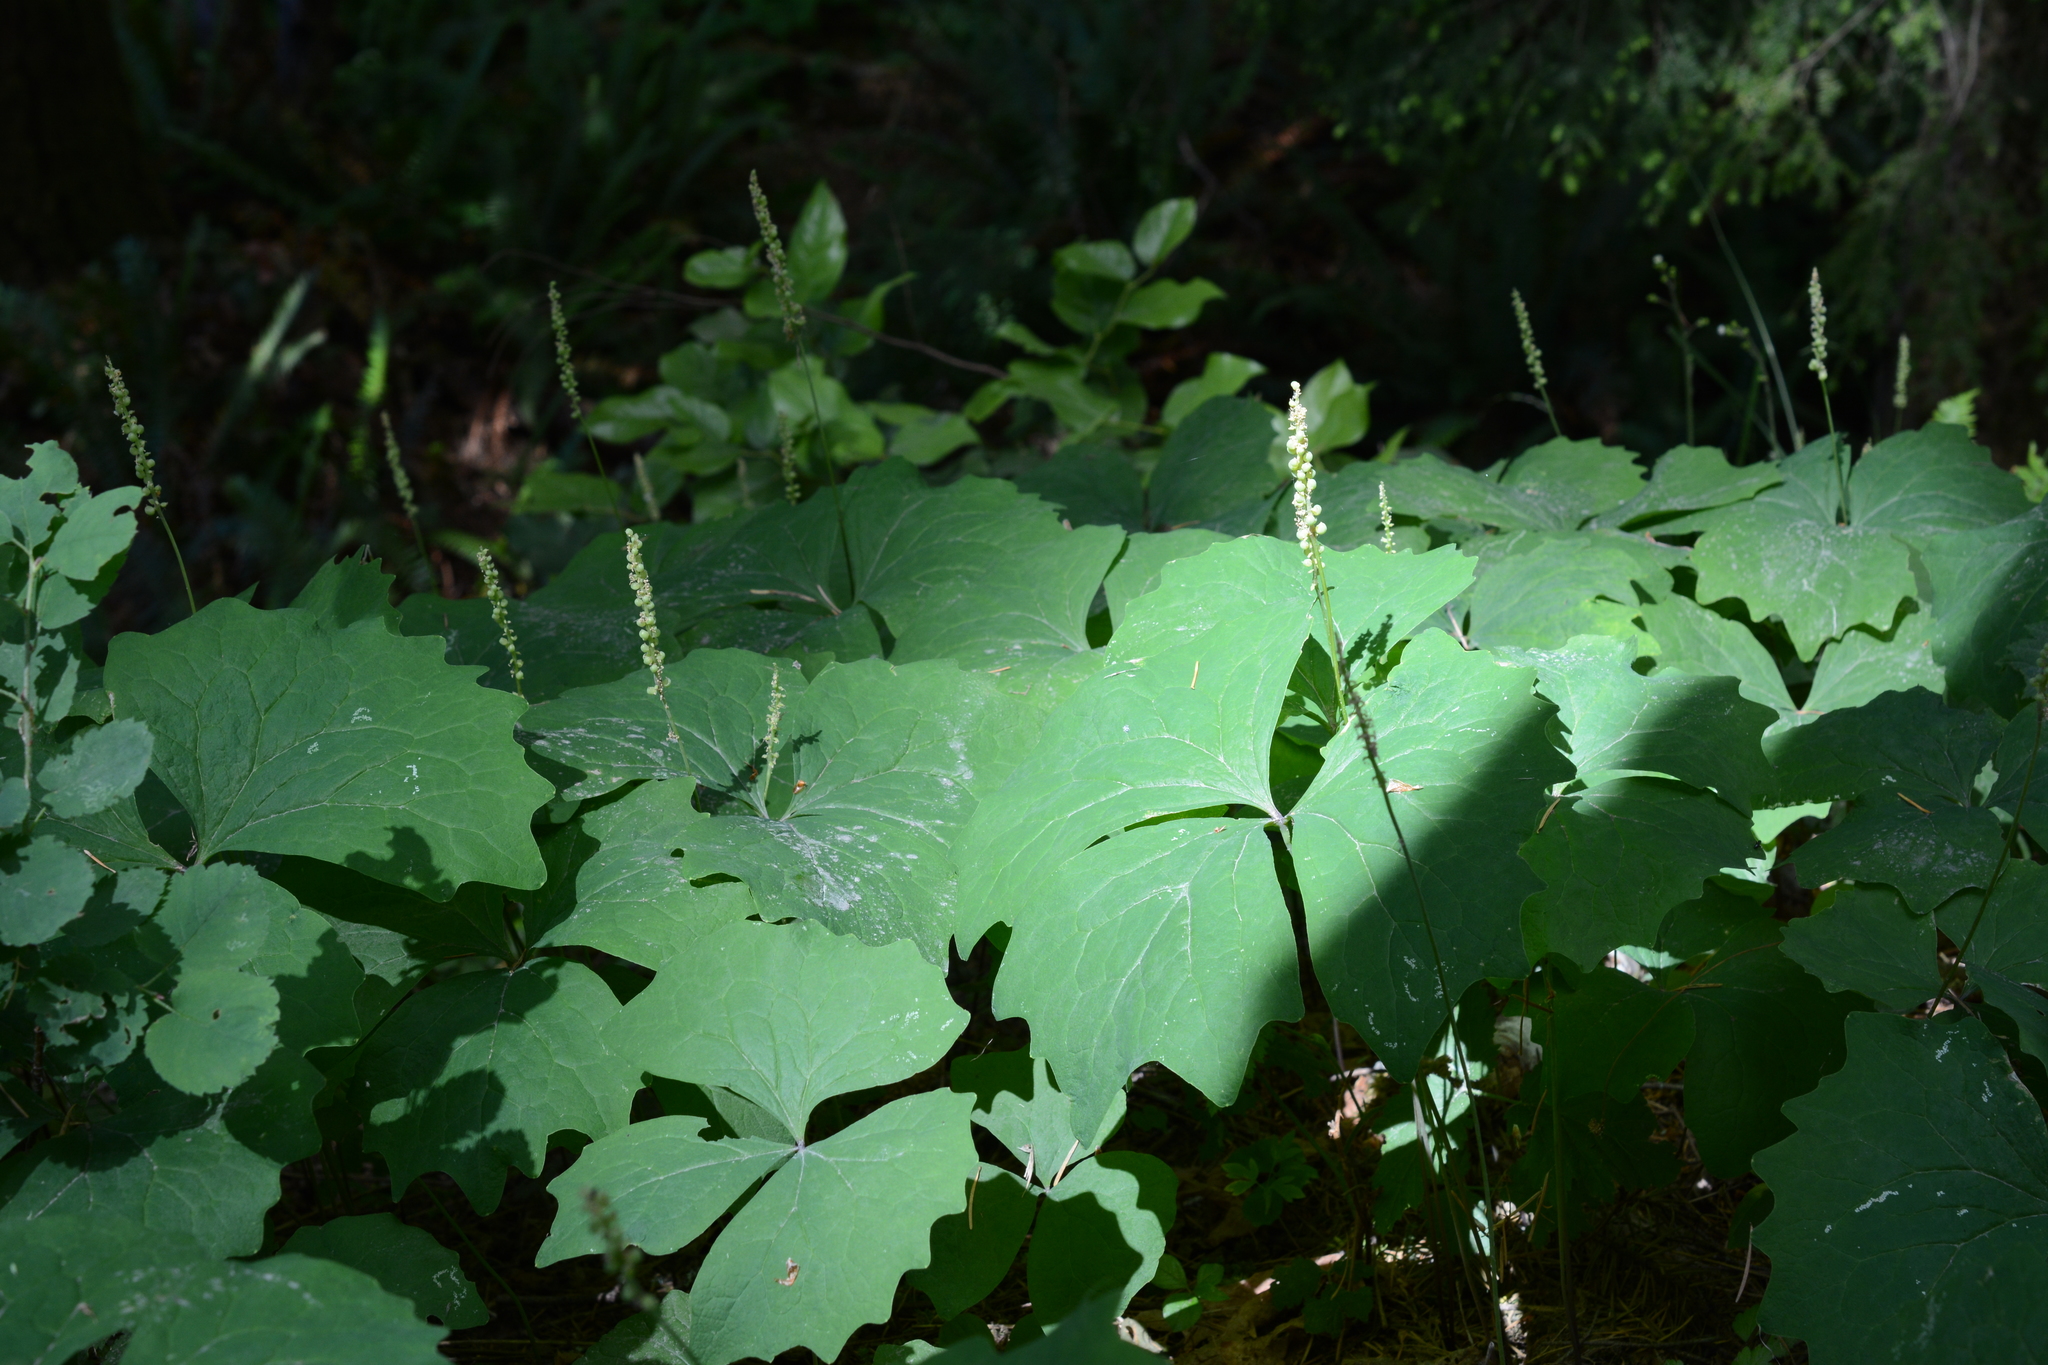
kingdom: Plantae
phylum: Tracheophyta
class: Magnoliopsida
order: Ranunculales
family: Berberidaceae
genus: Achlys
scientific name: Achlys triphylla
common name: Vanilla-leaf
